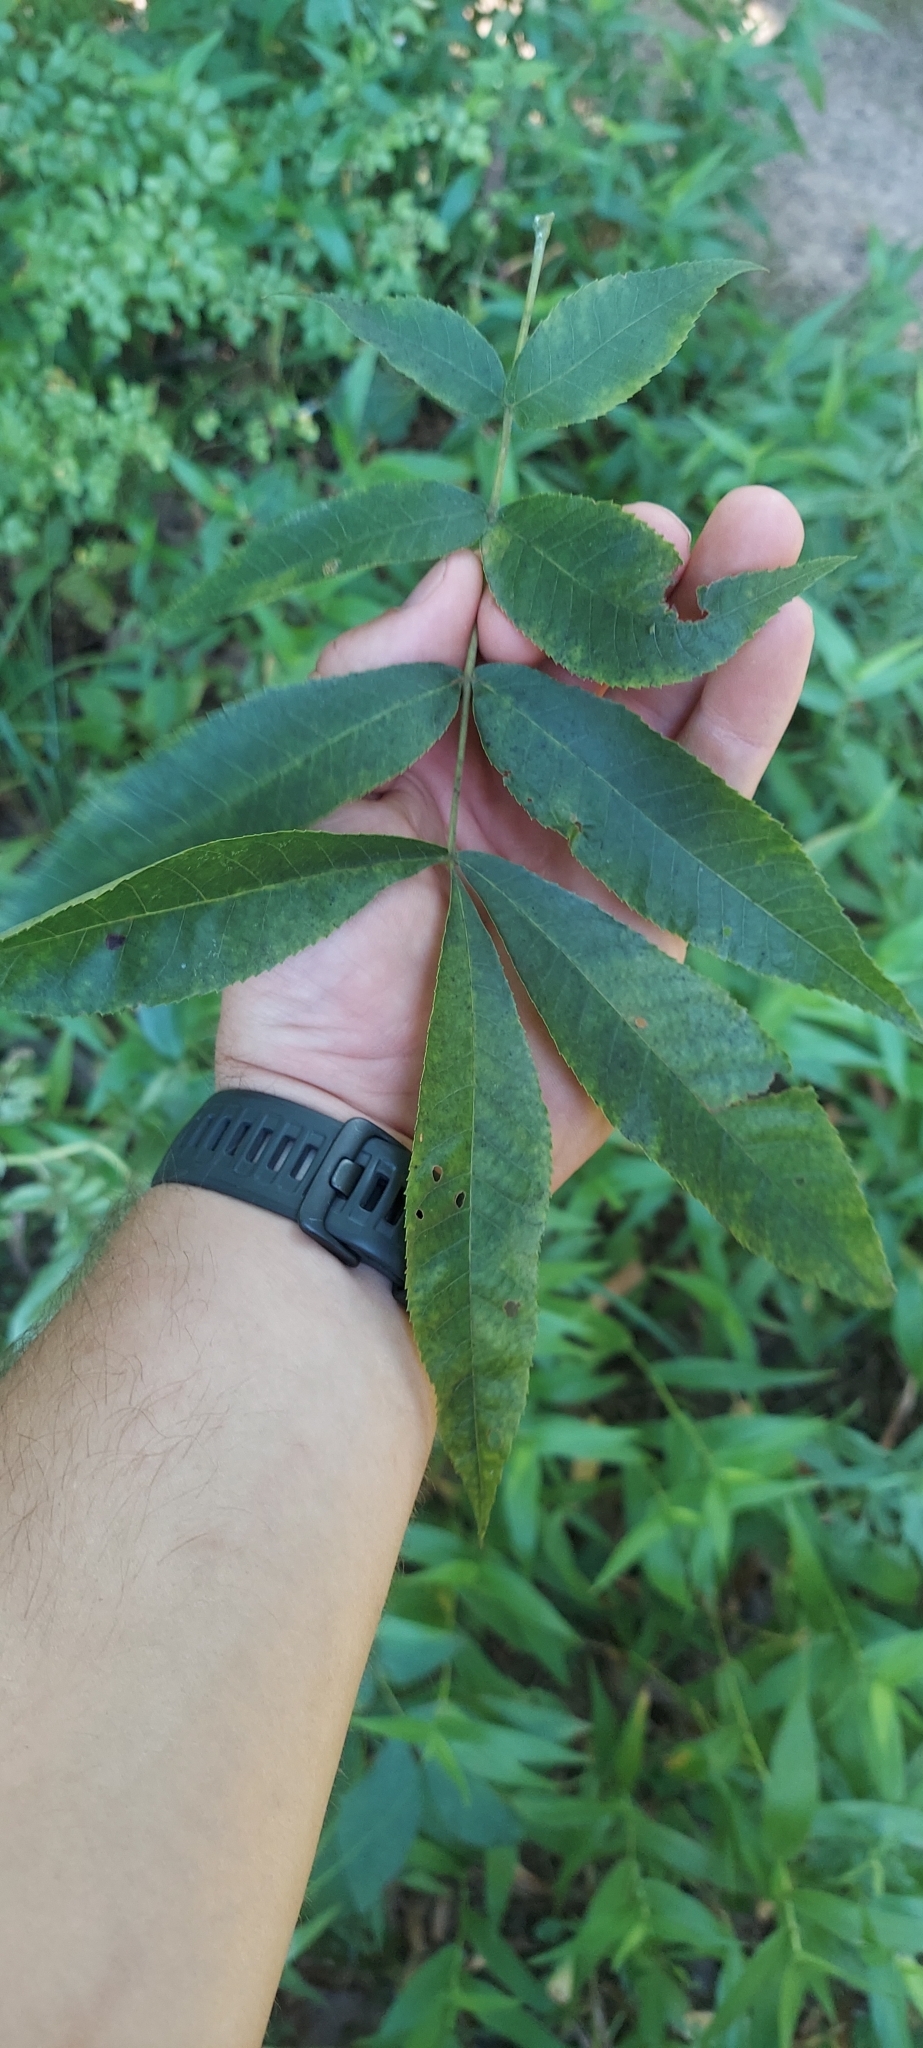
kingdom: Plantae
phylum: Tracheophyta
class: Magnoliopsida
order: Fagales
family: Juglandaceae
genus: Carya
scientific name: Carya cordiformis
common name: Bitternut hickory
